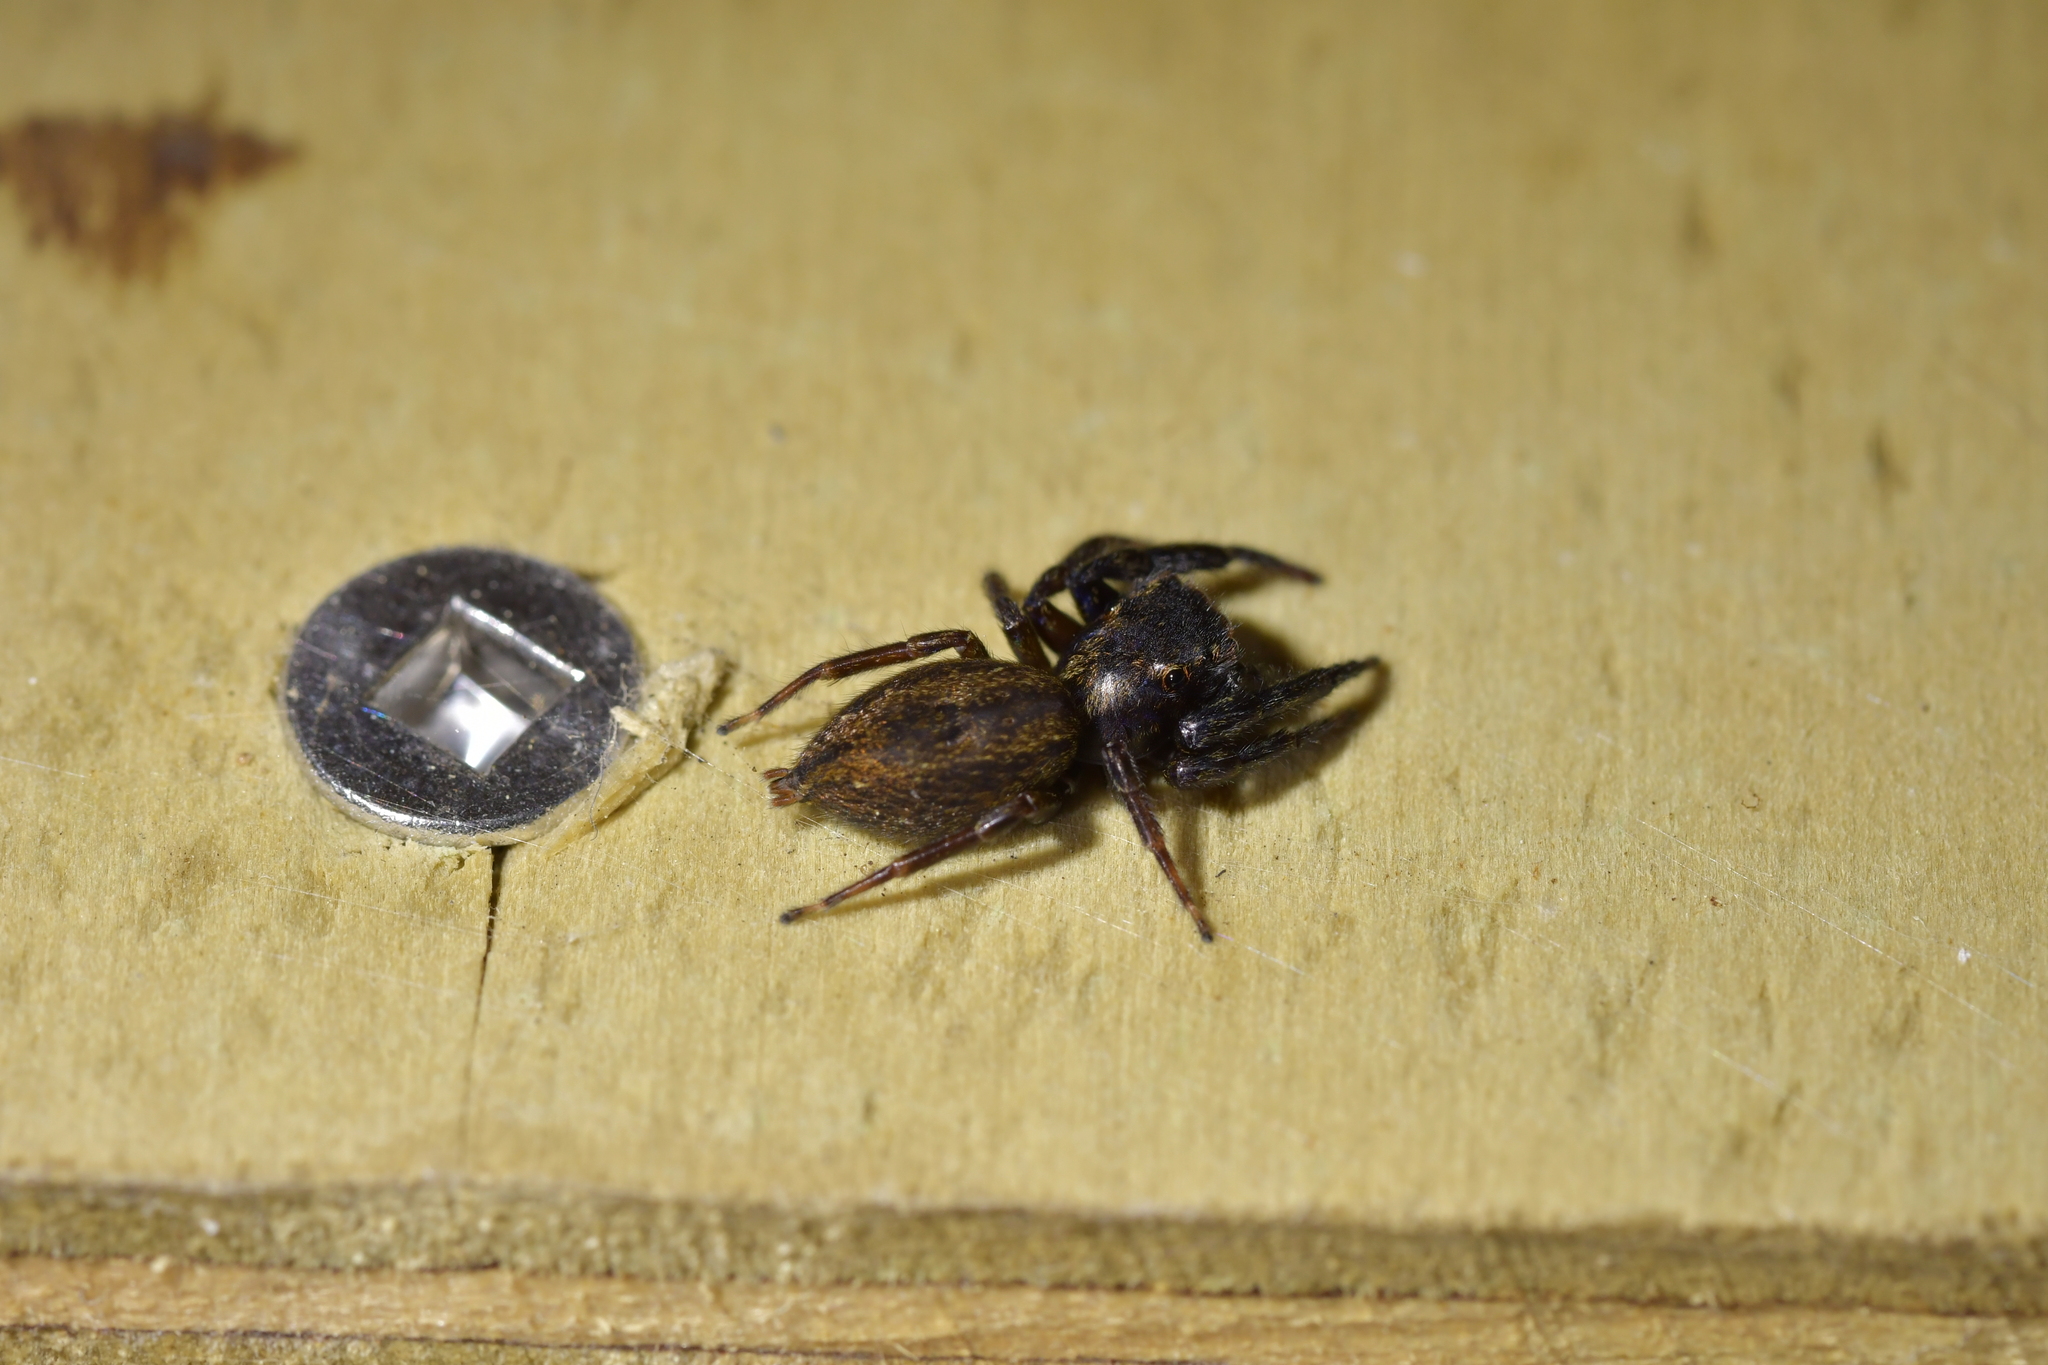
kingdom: Animalia
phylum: Arthropoda
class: Arachnida
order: Araneae
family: Salticidae
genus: Trite
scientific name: Trite auricoma
